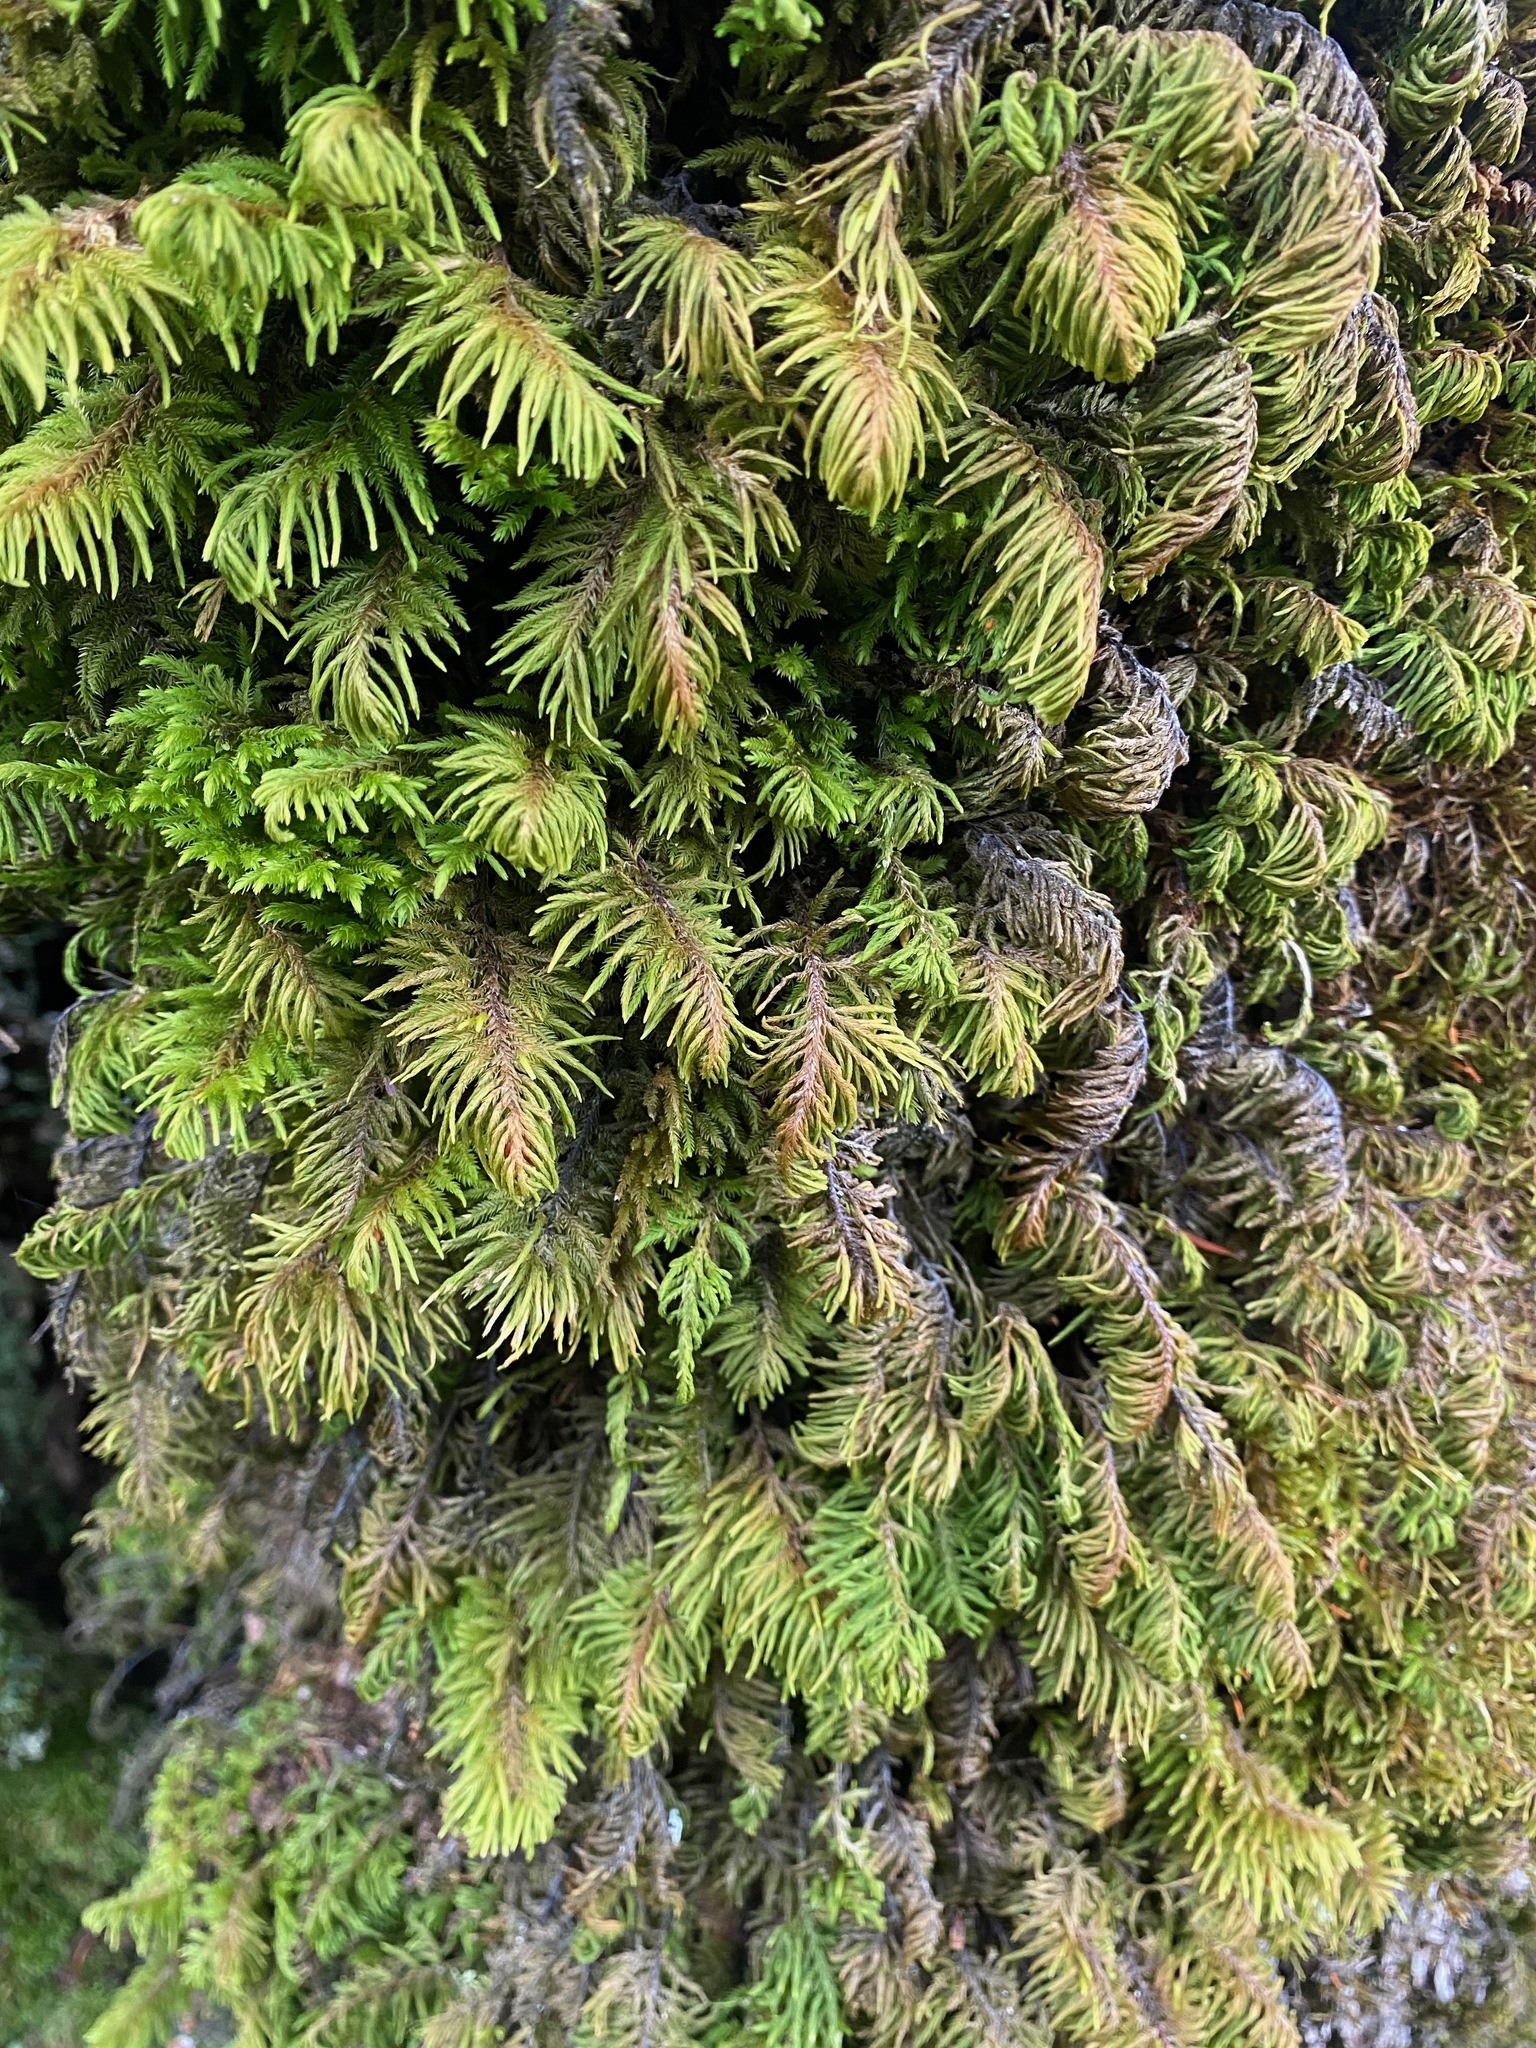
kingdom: Plantae
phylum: Bryophyta
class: Bryopsida
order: Hypnales
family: Cryphaeaceae
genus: Dendroalsia
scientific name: Dendroalsia abietina
